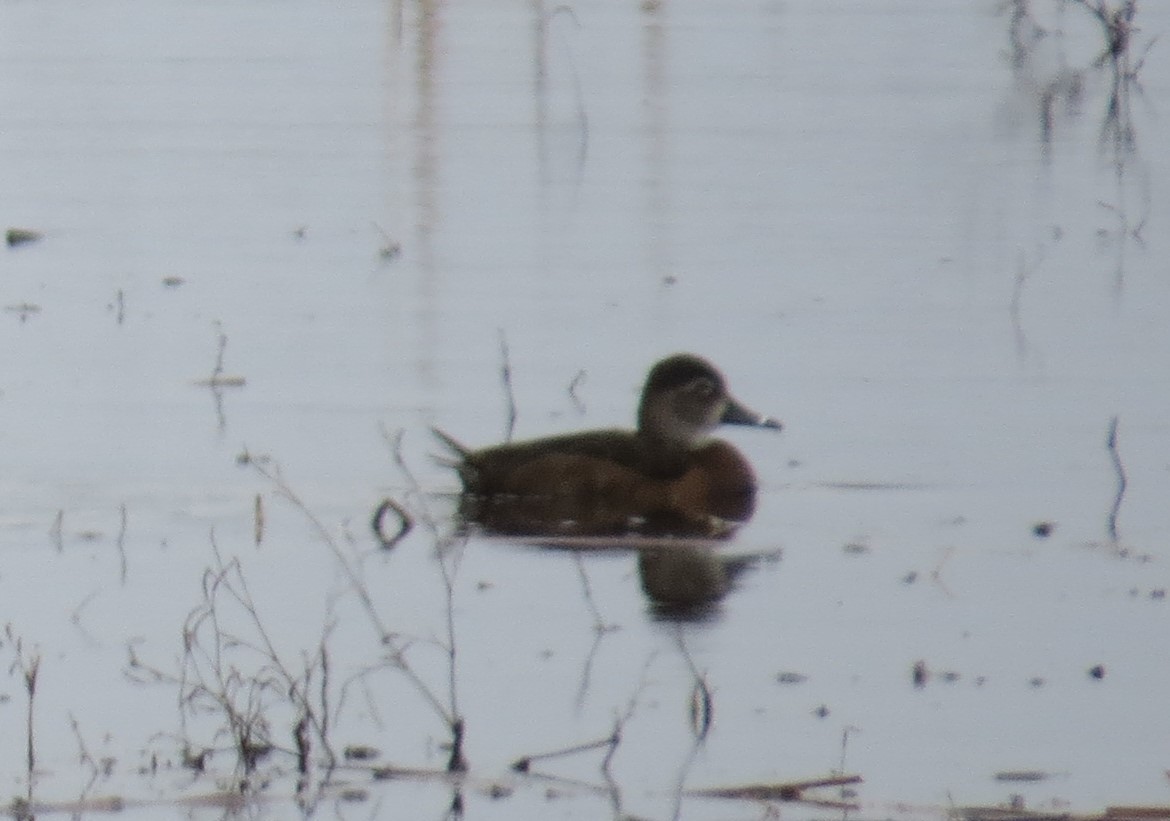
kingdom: Animalia
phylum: Chordata
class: Aves
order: Anseriformes
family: Anatidae
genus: Aythya
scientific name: Aythya collaris
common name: Ring-necked duck
